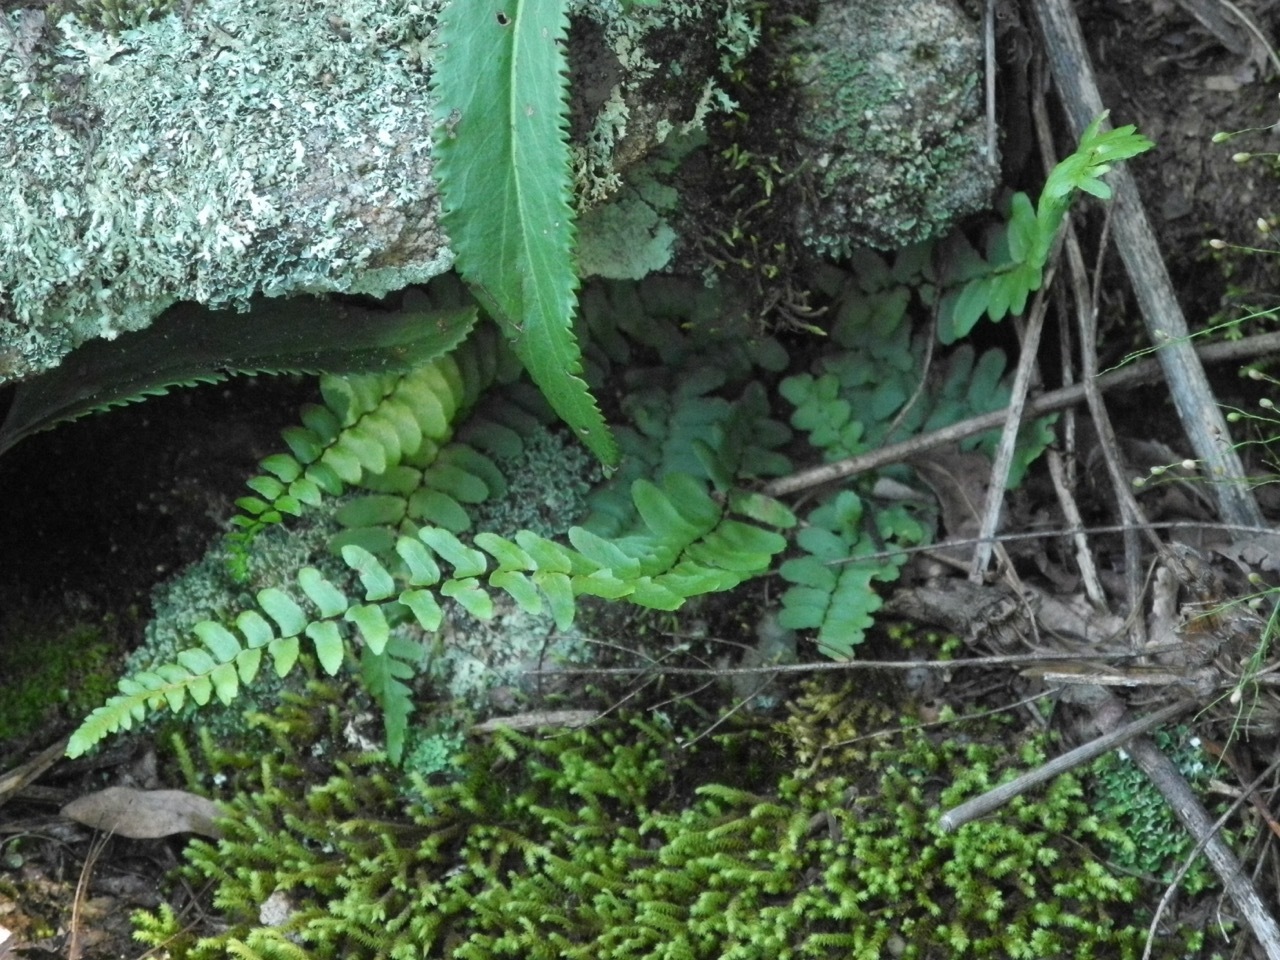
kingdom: Plantae
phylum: Tracheophyta
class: Polypodiopsida
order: Polypodiales
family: Aspleniaceae
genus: Asplenium
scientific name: Asplenium platyneuron
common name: Ebony spleenwort
